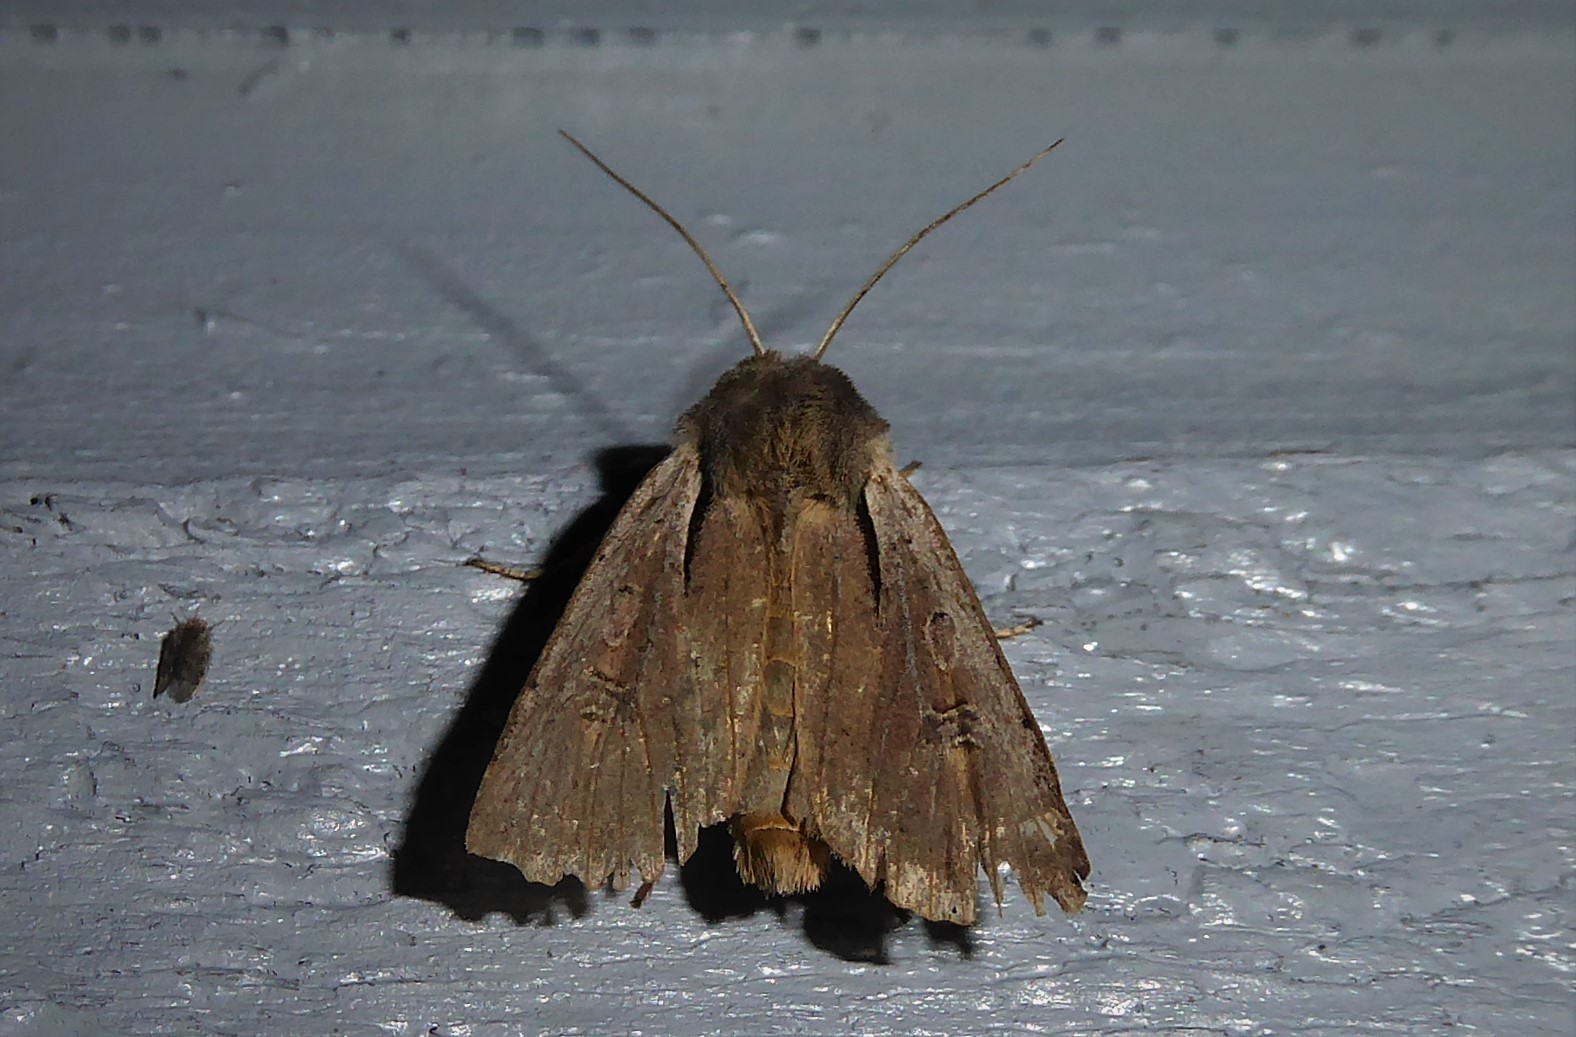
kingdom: Animalia
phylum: Arthropoda
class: Insecta
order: Lepidoptera
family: Noctuidae
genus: Ichneutica
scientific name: Ichneutica atristriga
